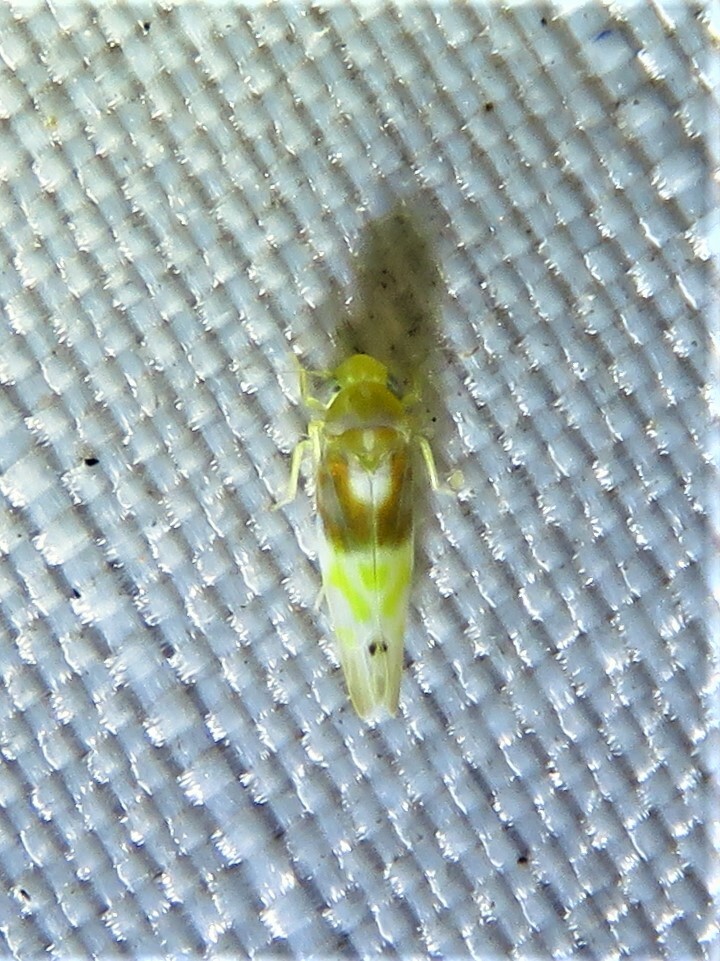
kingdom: Animalia
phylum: Arthropoda
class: Insecta
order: Hemiptera
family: Cicadellidae
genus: Eratoneura
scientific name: Eratoneura affinis
